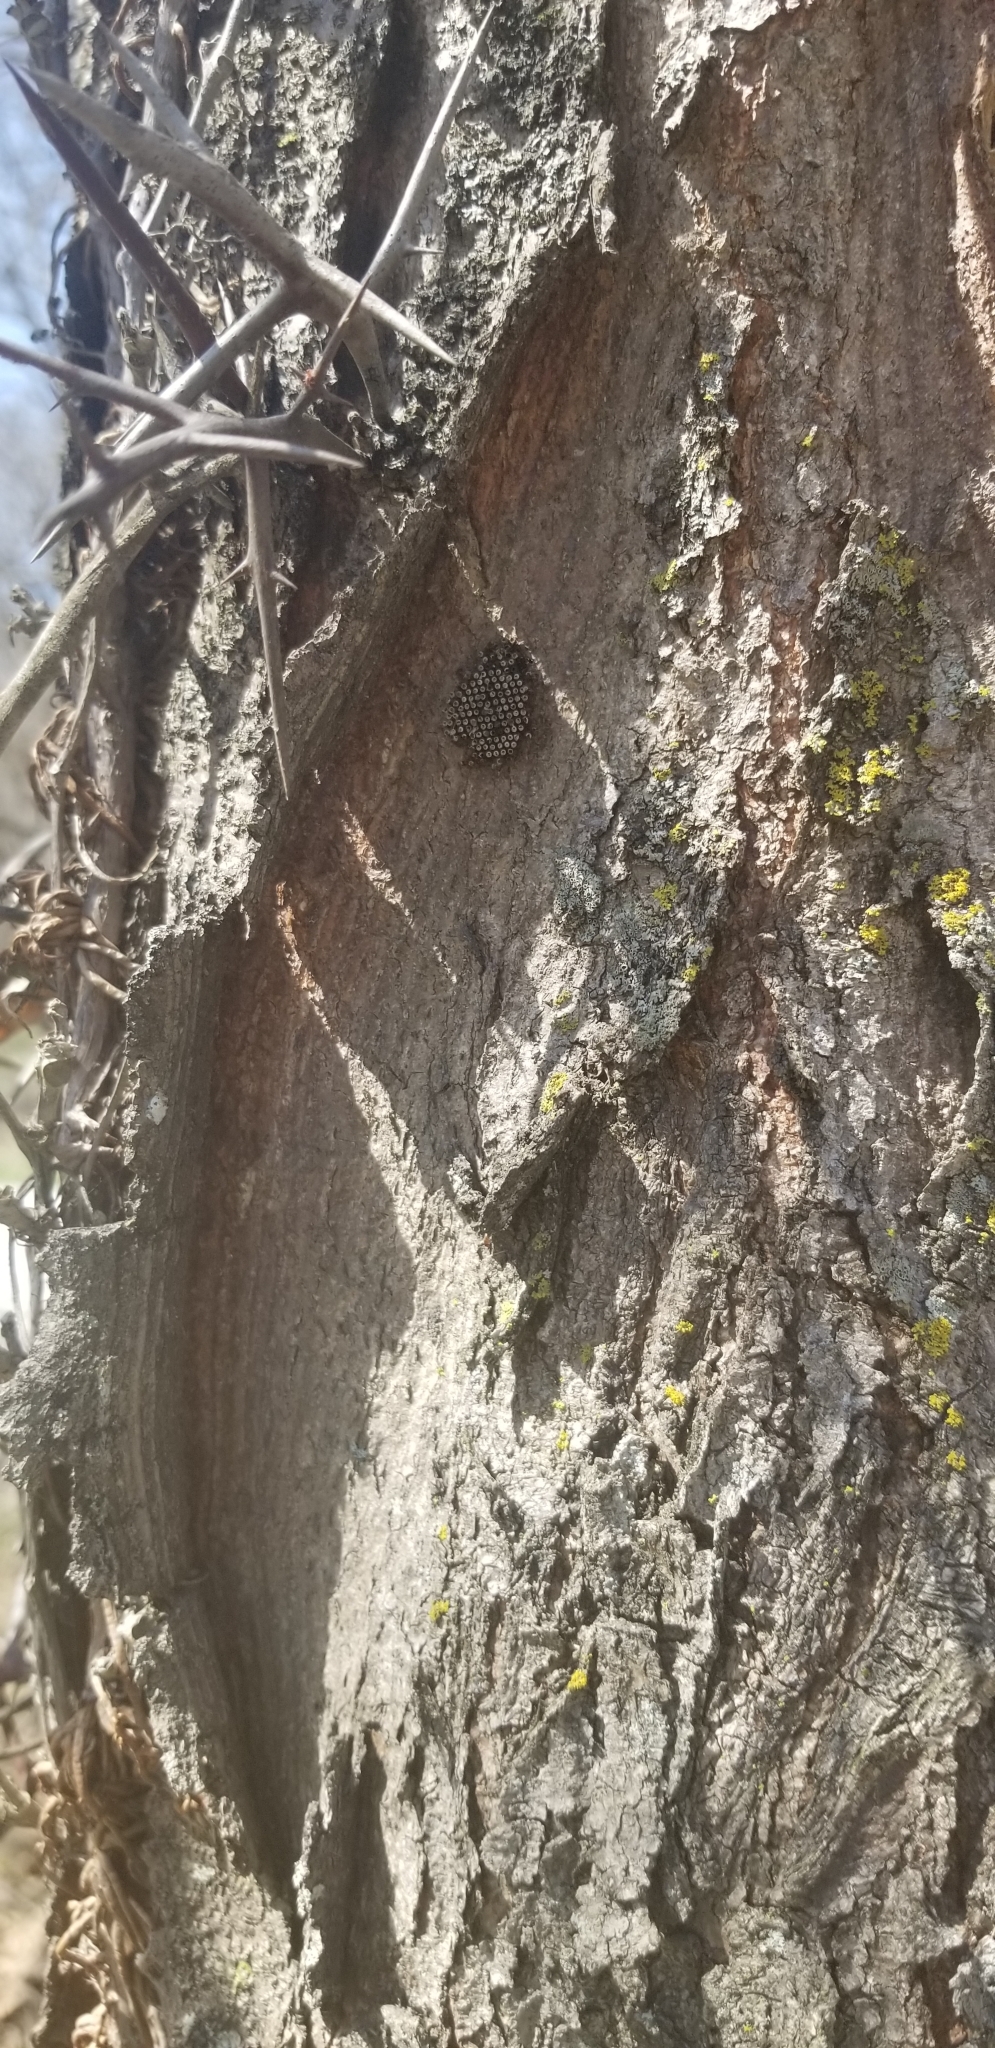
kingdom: Animalia
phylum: Arthropoda
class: Insecta
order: Hemiptera
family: Reduviidae
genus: Arilus
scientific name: Arilus cristatus
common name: North american wheel bug
